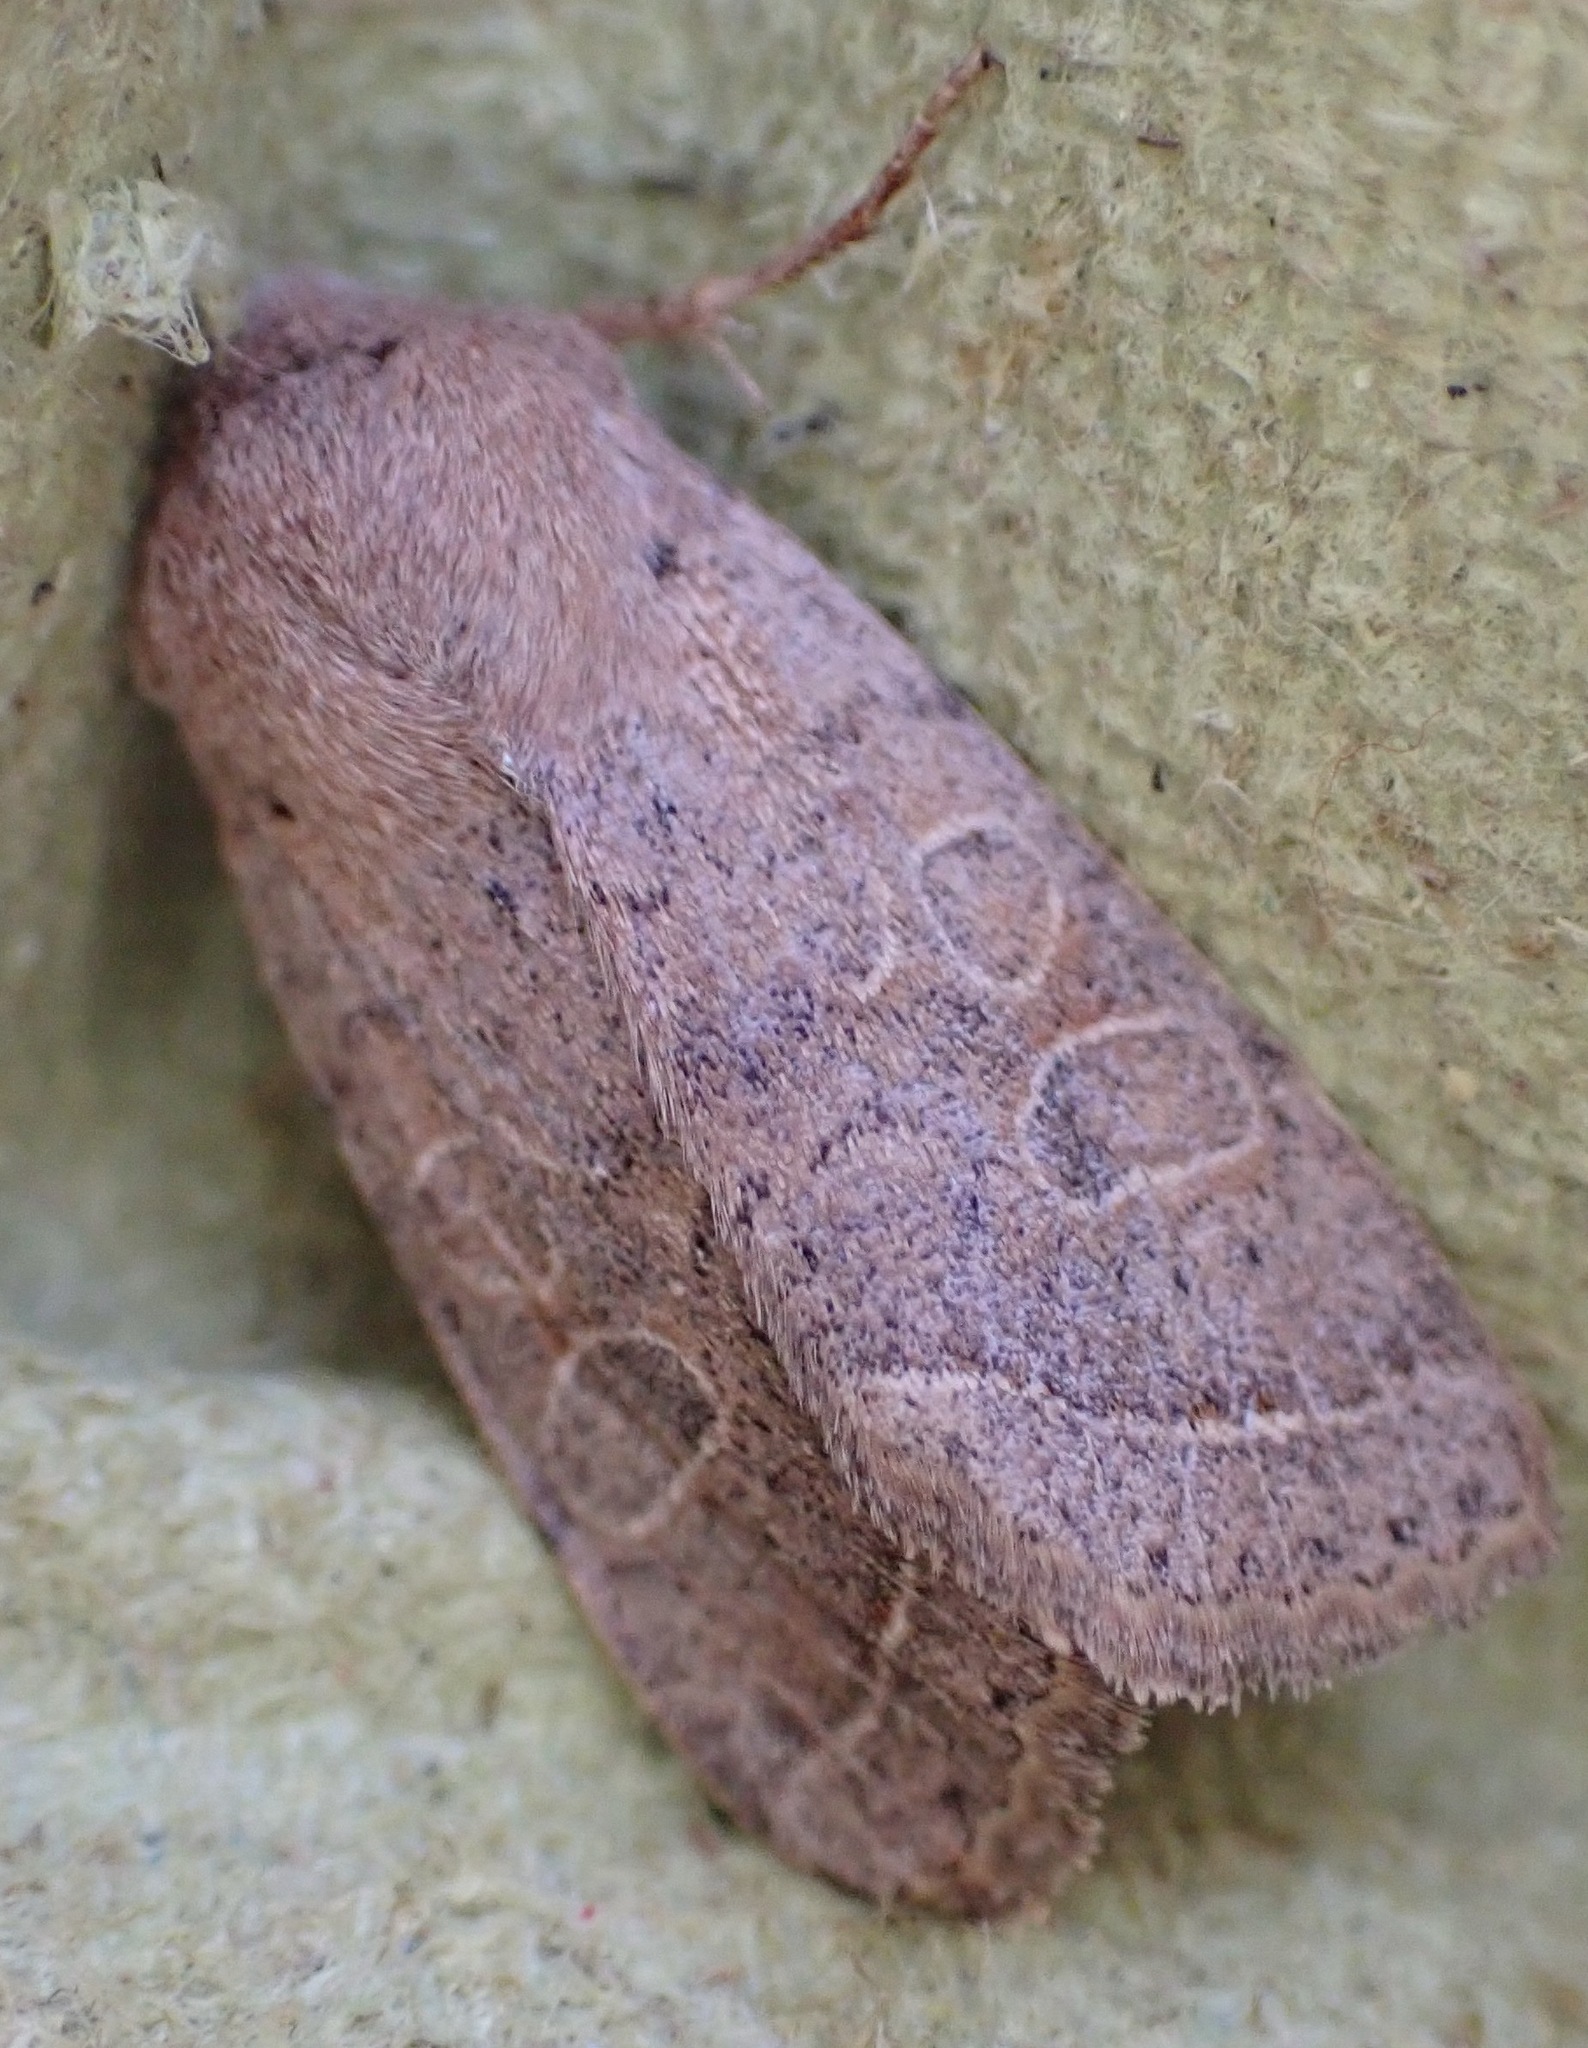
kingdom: Animalia
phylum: Arthropoda
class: Insecta
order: Lepidoptera
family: Noctuidae
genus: Orthosia
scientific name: Orthosia cerasi
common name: Common quaker
